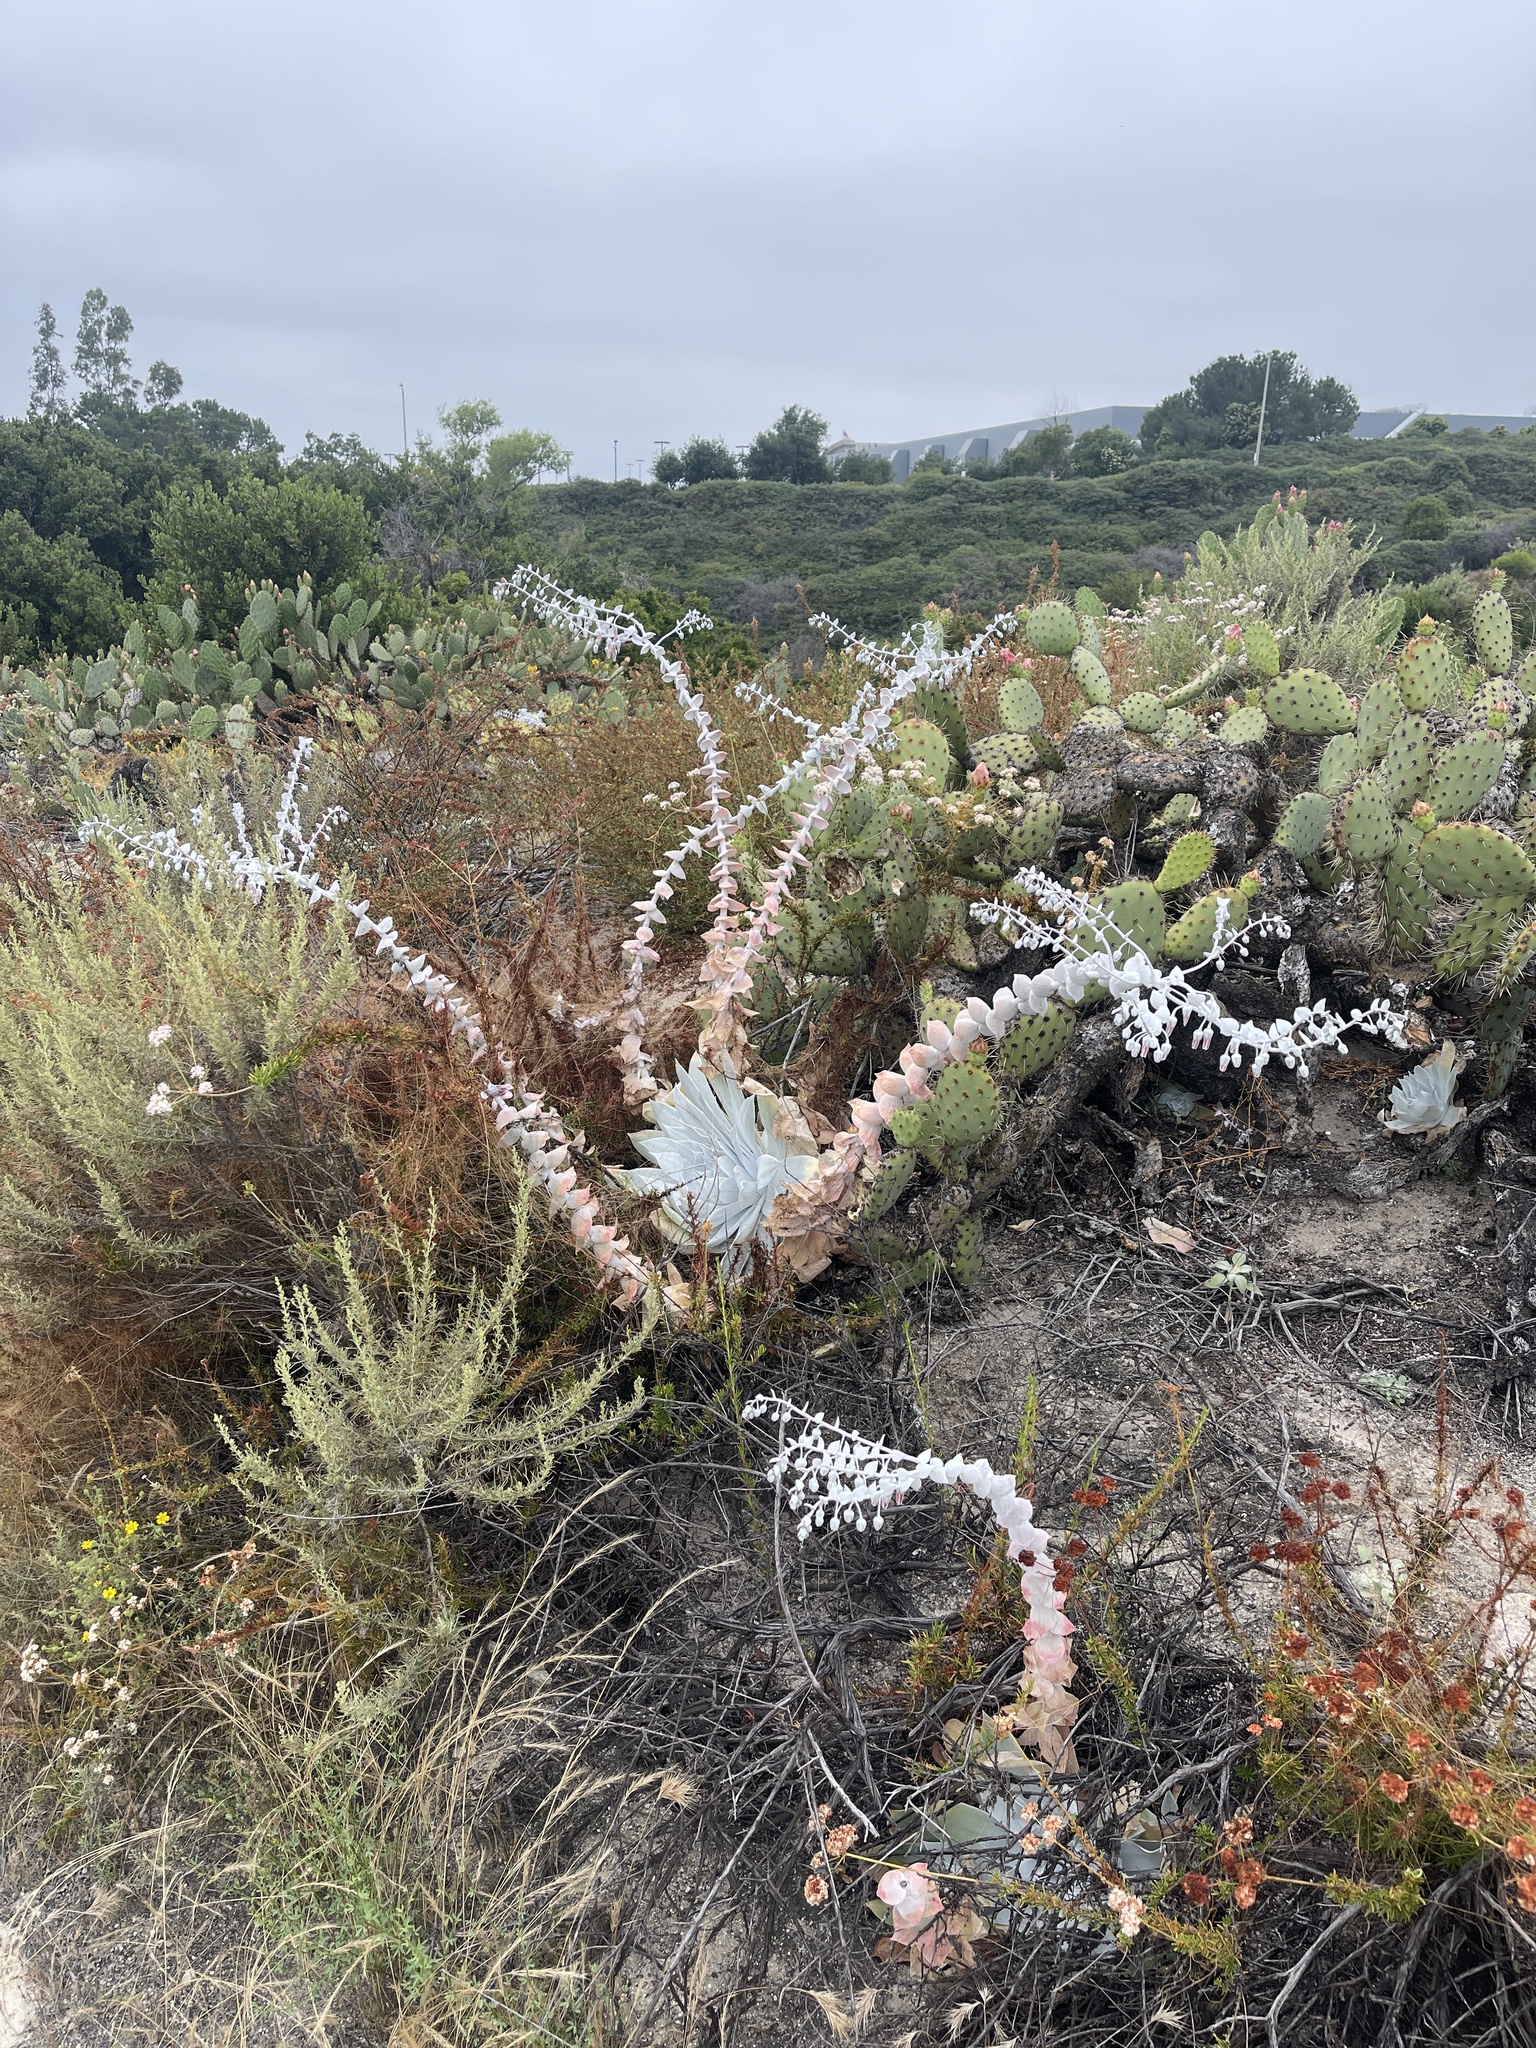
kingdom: Plantae
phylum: Tracheophyta
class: Magnoliopsida
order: Saxifragales
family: Crassulaceae
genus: Dudleya
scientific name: Dudleya pulverulenta
